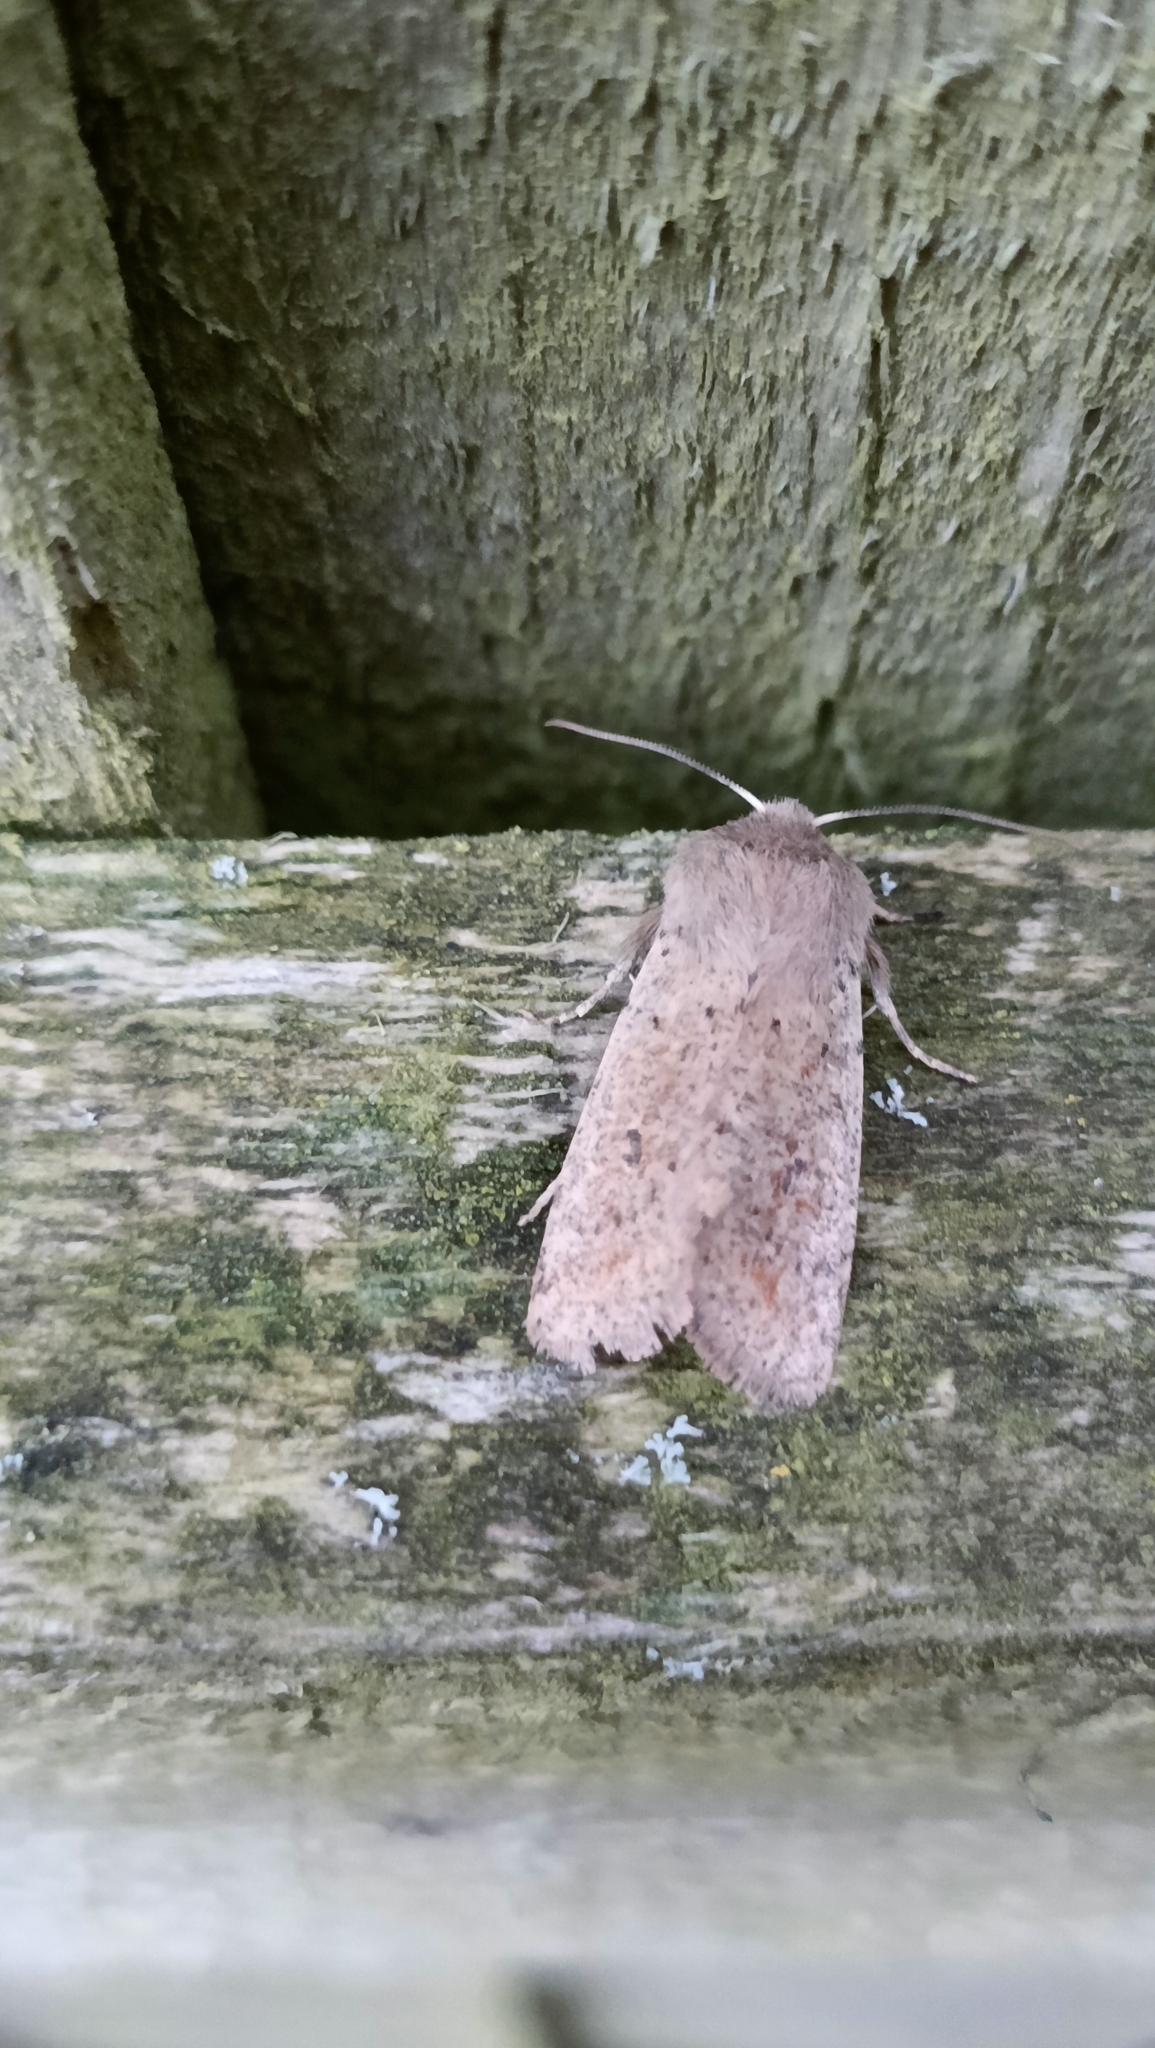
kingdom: Animalia
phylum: Arthropoda
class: Insecta
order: Lepidoptera
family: Noctuidae
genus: Orthosia
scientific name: Orthosia cruda
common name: Small quaker
